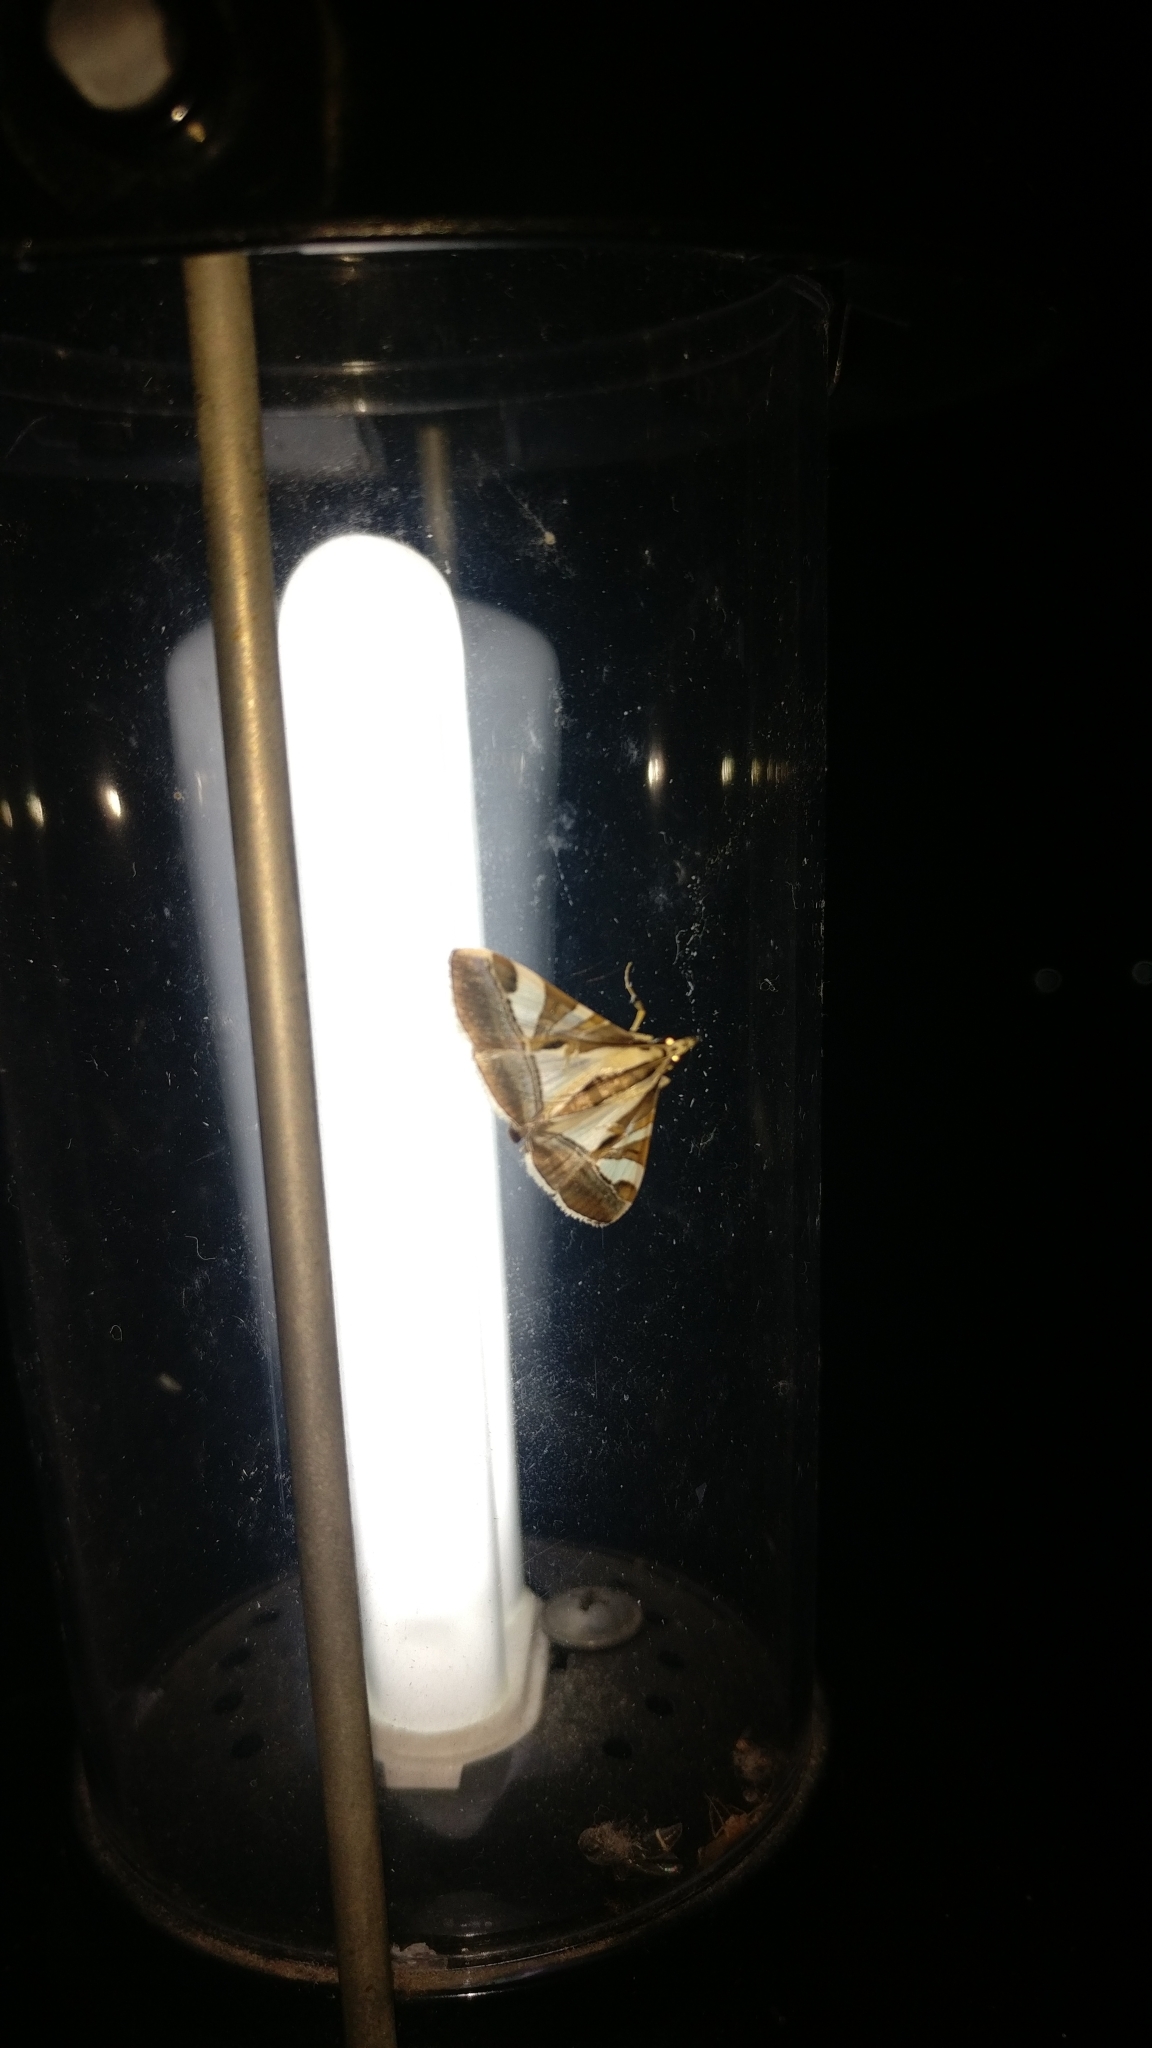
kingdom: Animalia
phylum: Arthropoda
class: Insecta
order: Lepidoptera
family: Crambidae
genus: Agrioglypta
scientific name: Agrioglypta itysalis
